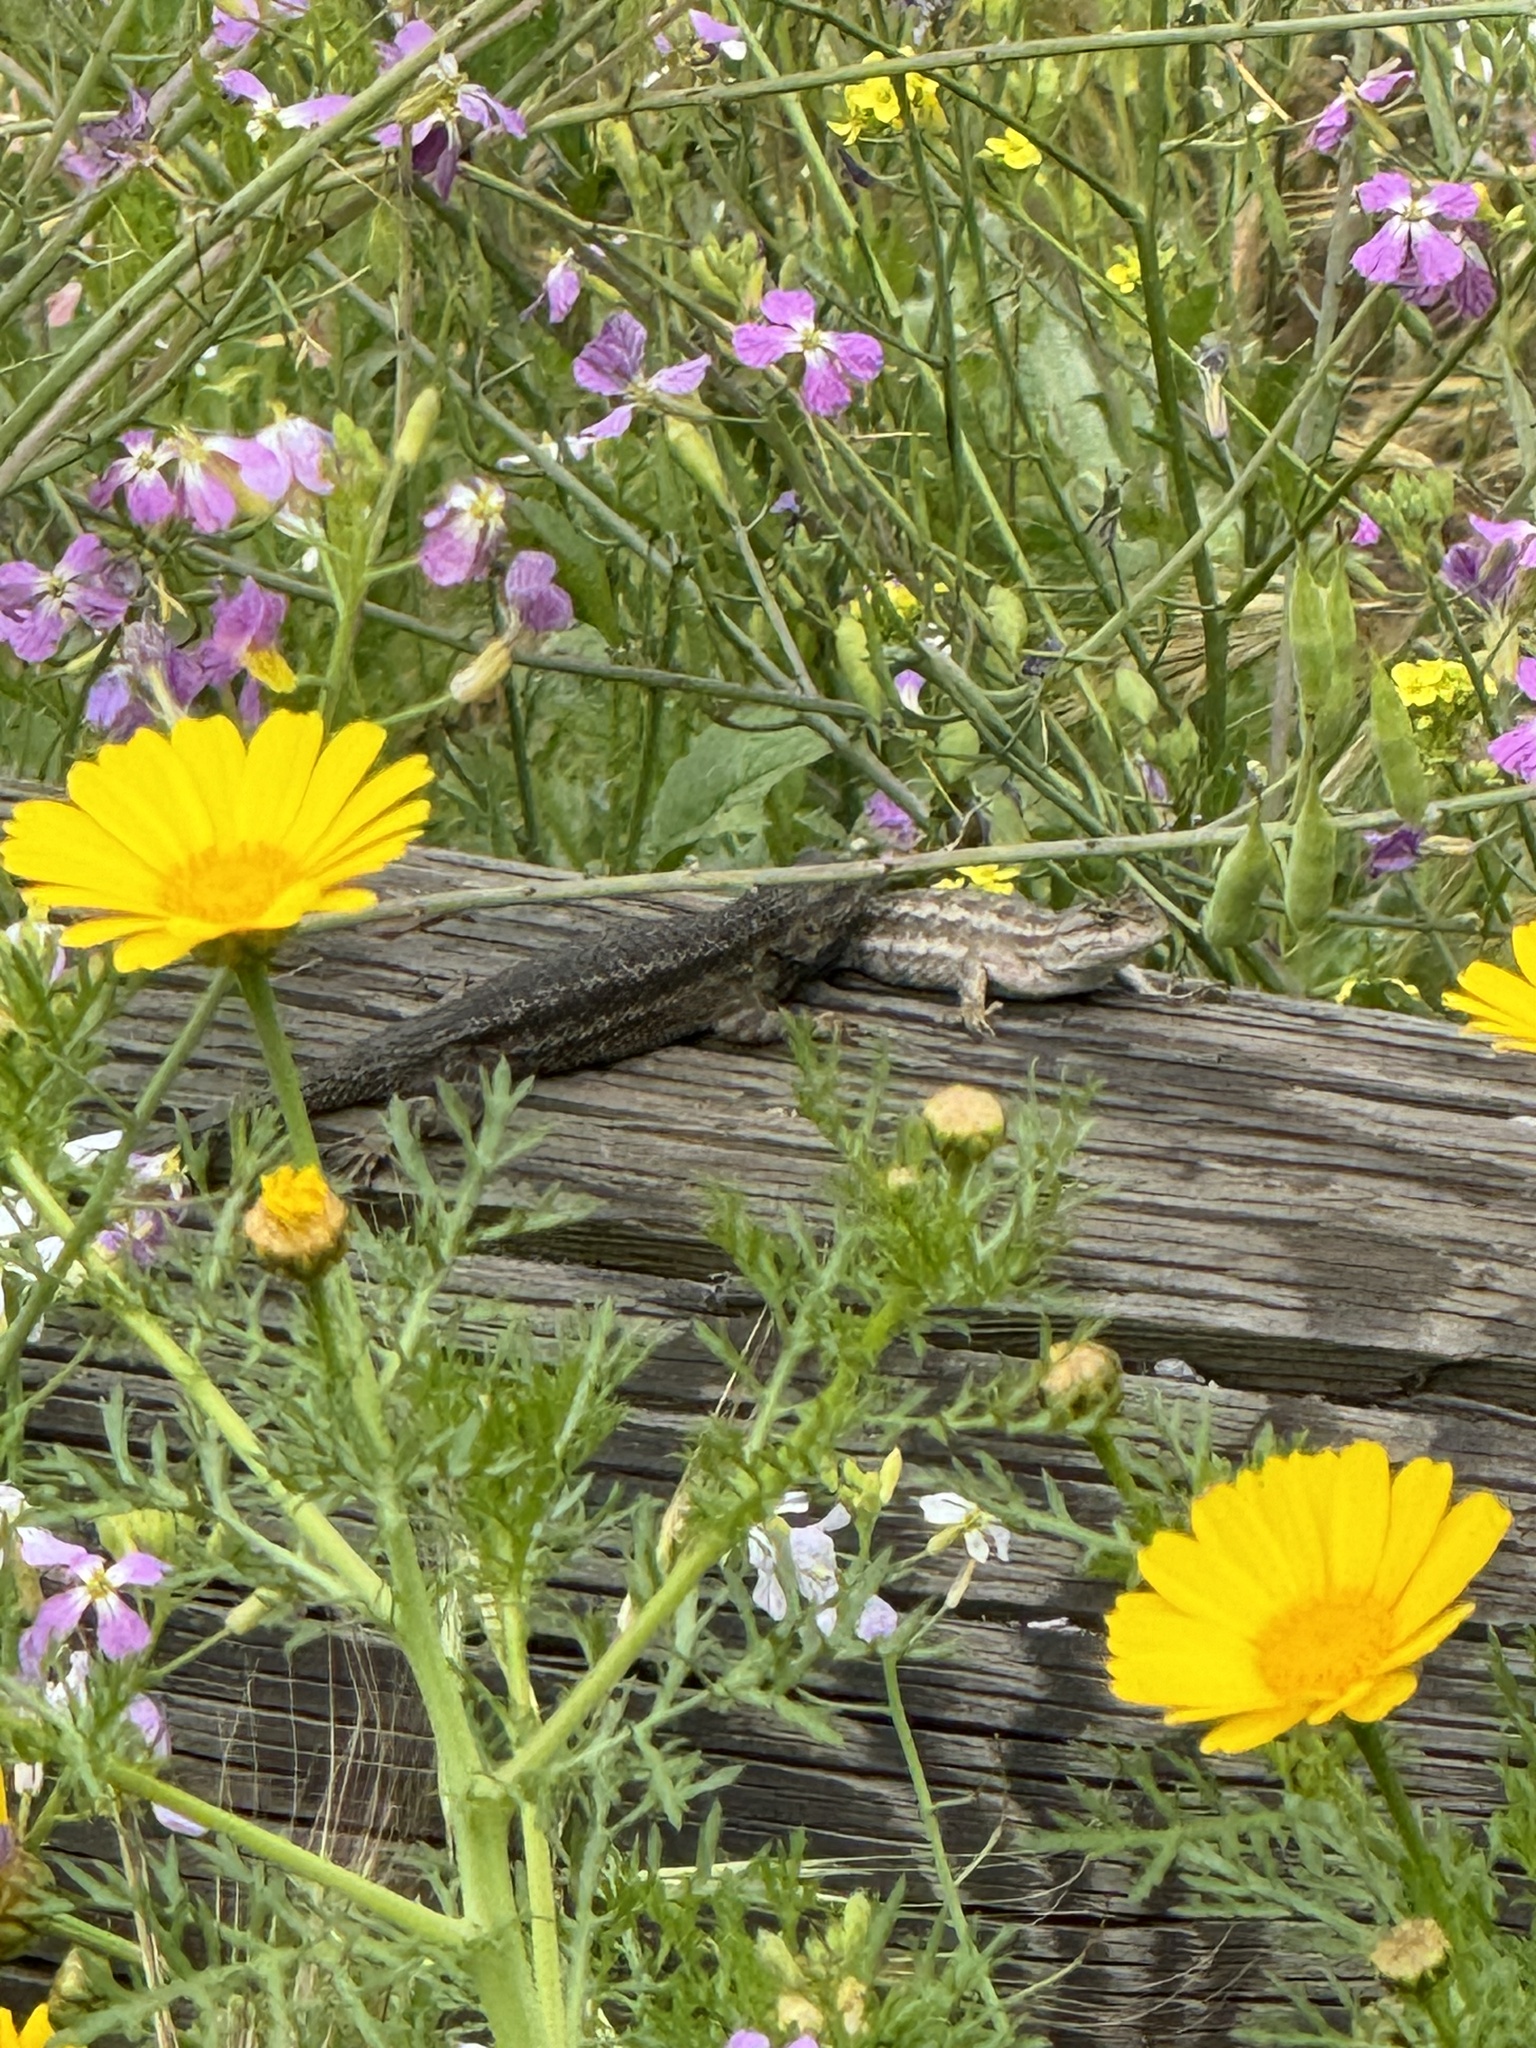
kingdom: Animalia
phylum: Chordata
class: Squamata
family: Phrynosomatidae
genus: Sceloporus
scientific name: Sceloporus occidentalis
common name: Western fence lizard
